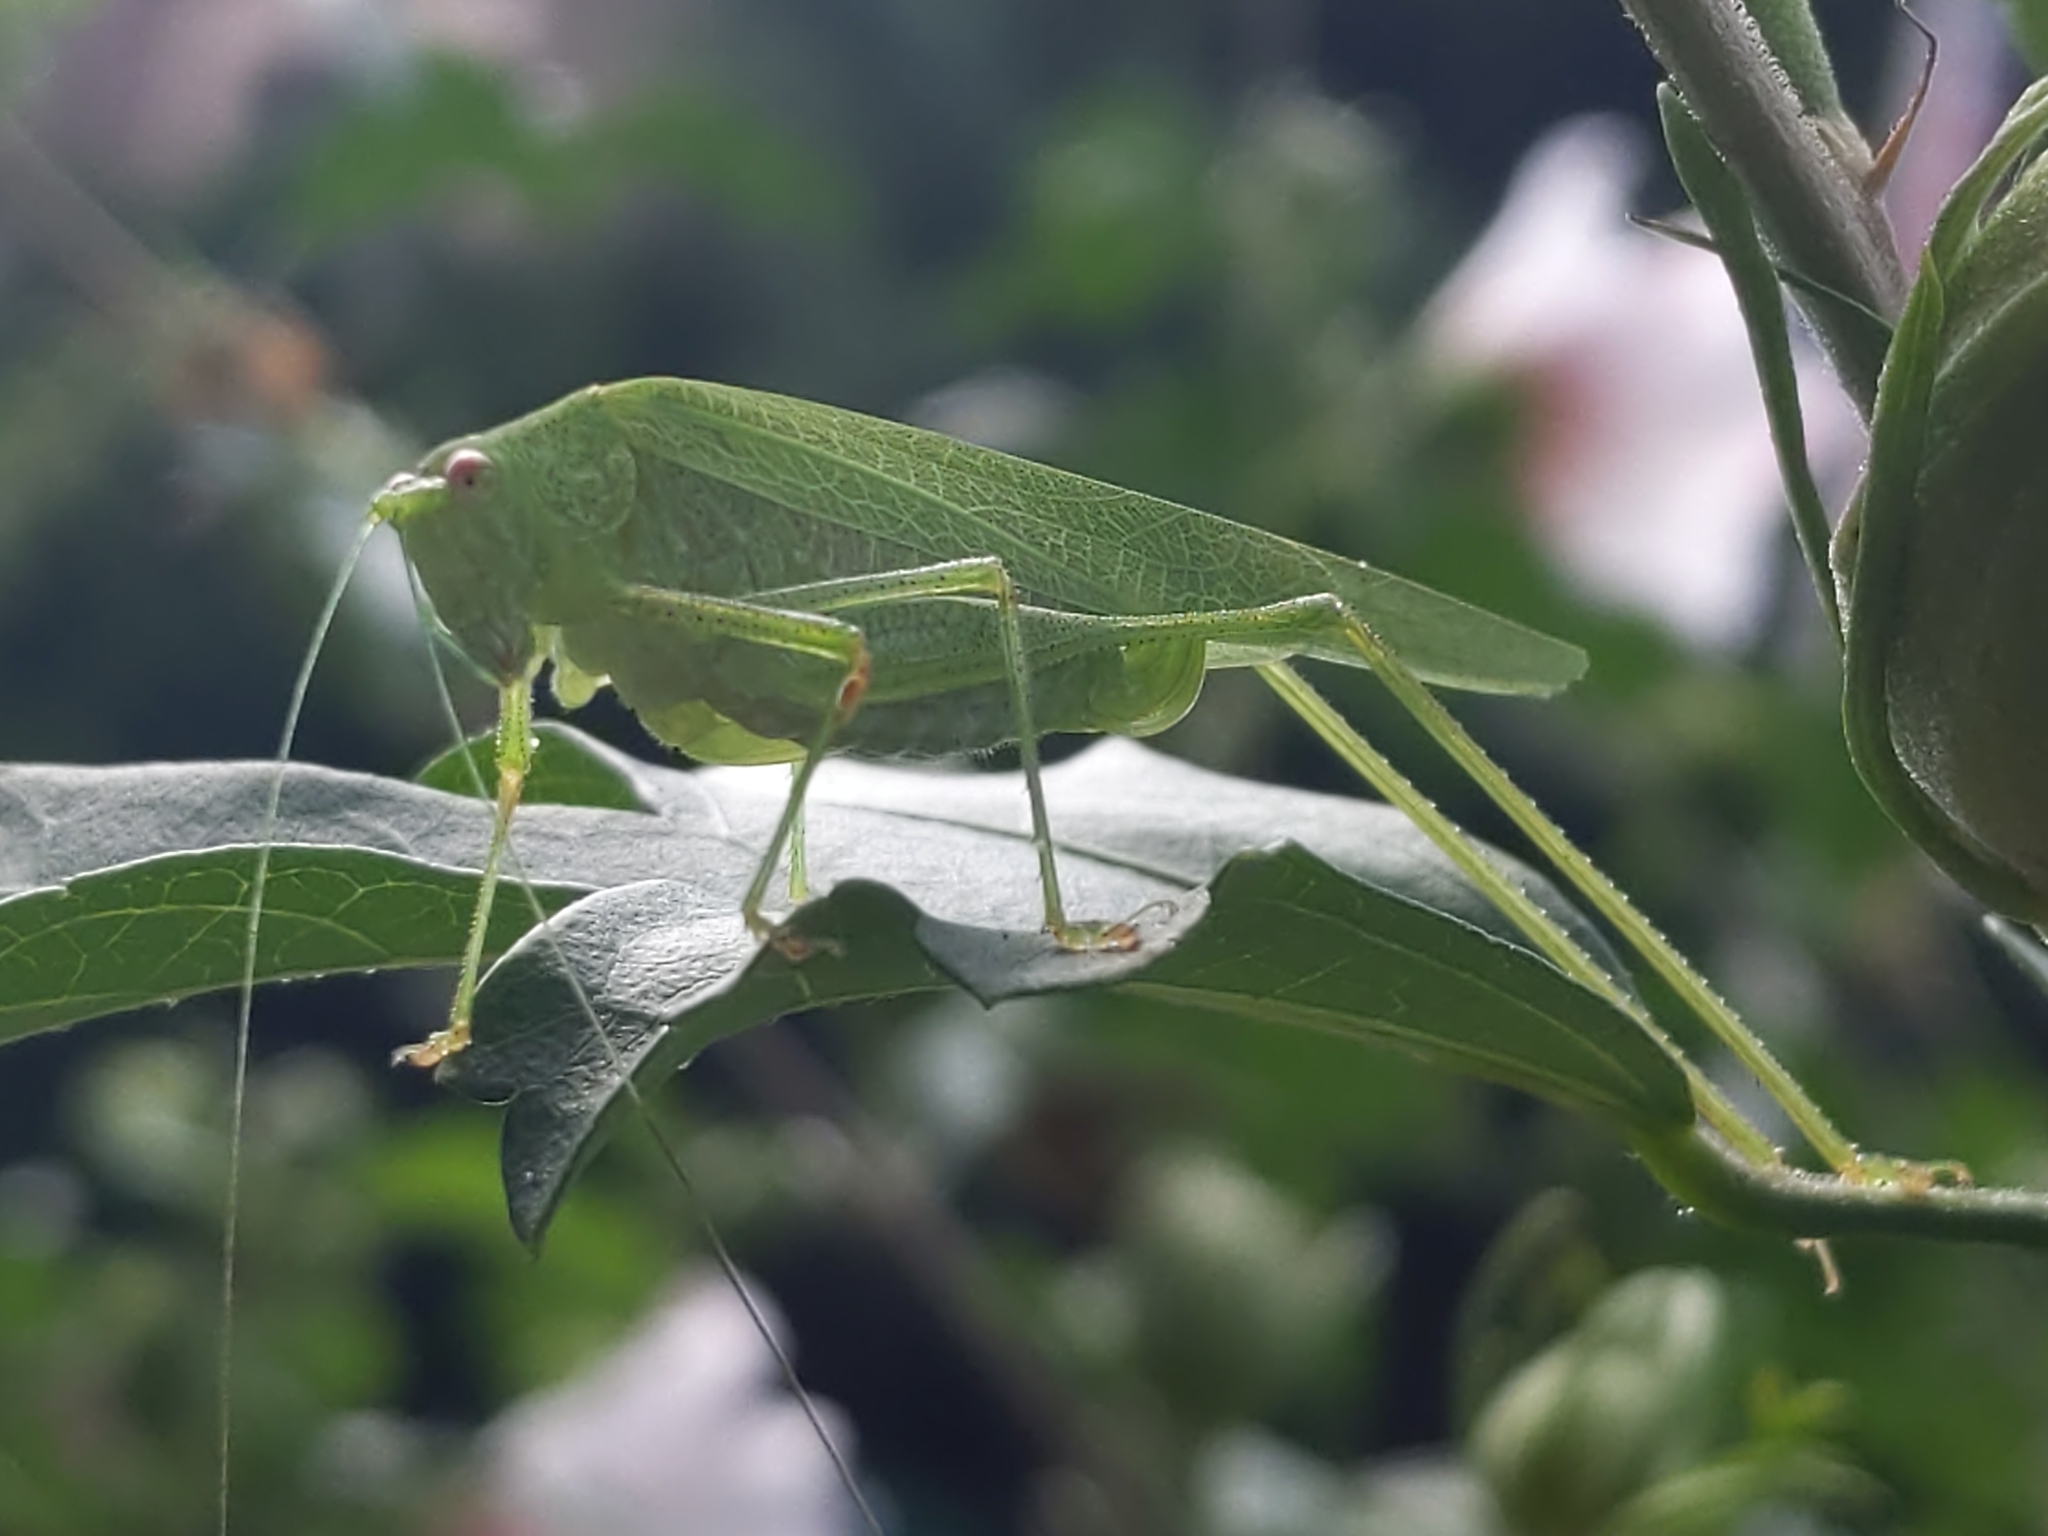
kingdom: Animalia
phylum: Arthropoda
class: Insecta
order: Orthoptera
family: Tettigoniidae
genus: Phaneroptera
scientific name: Phaneroptera nana
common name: Southern sickle bush-cricket
